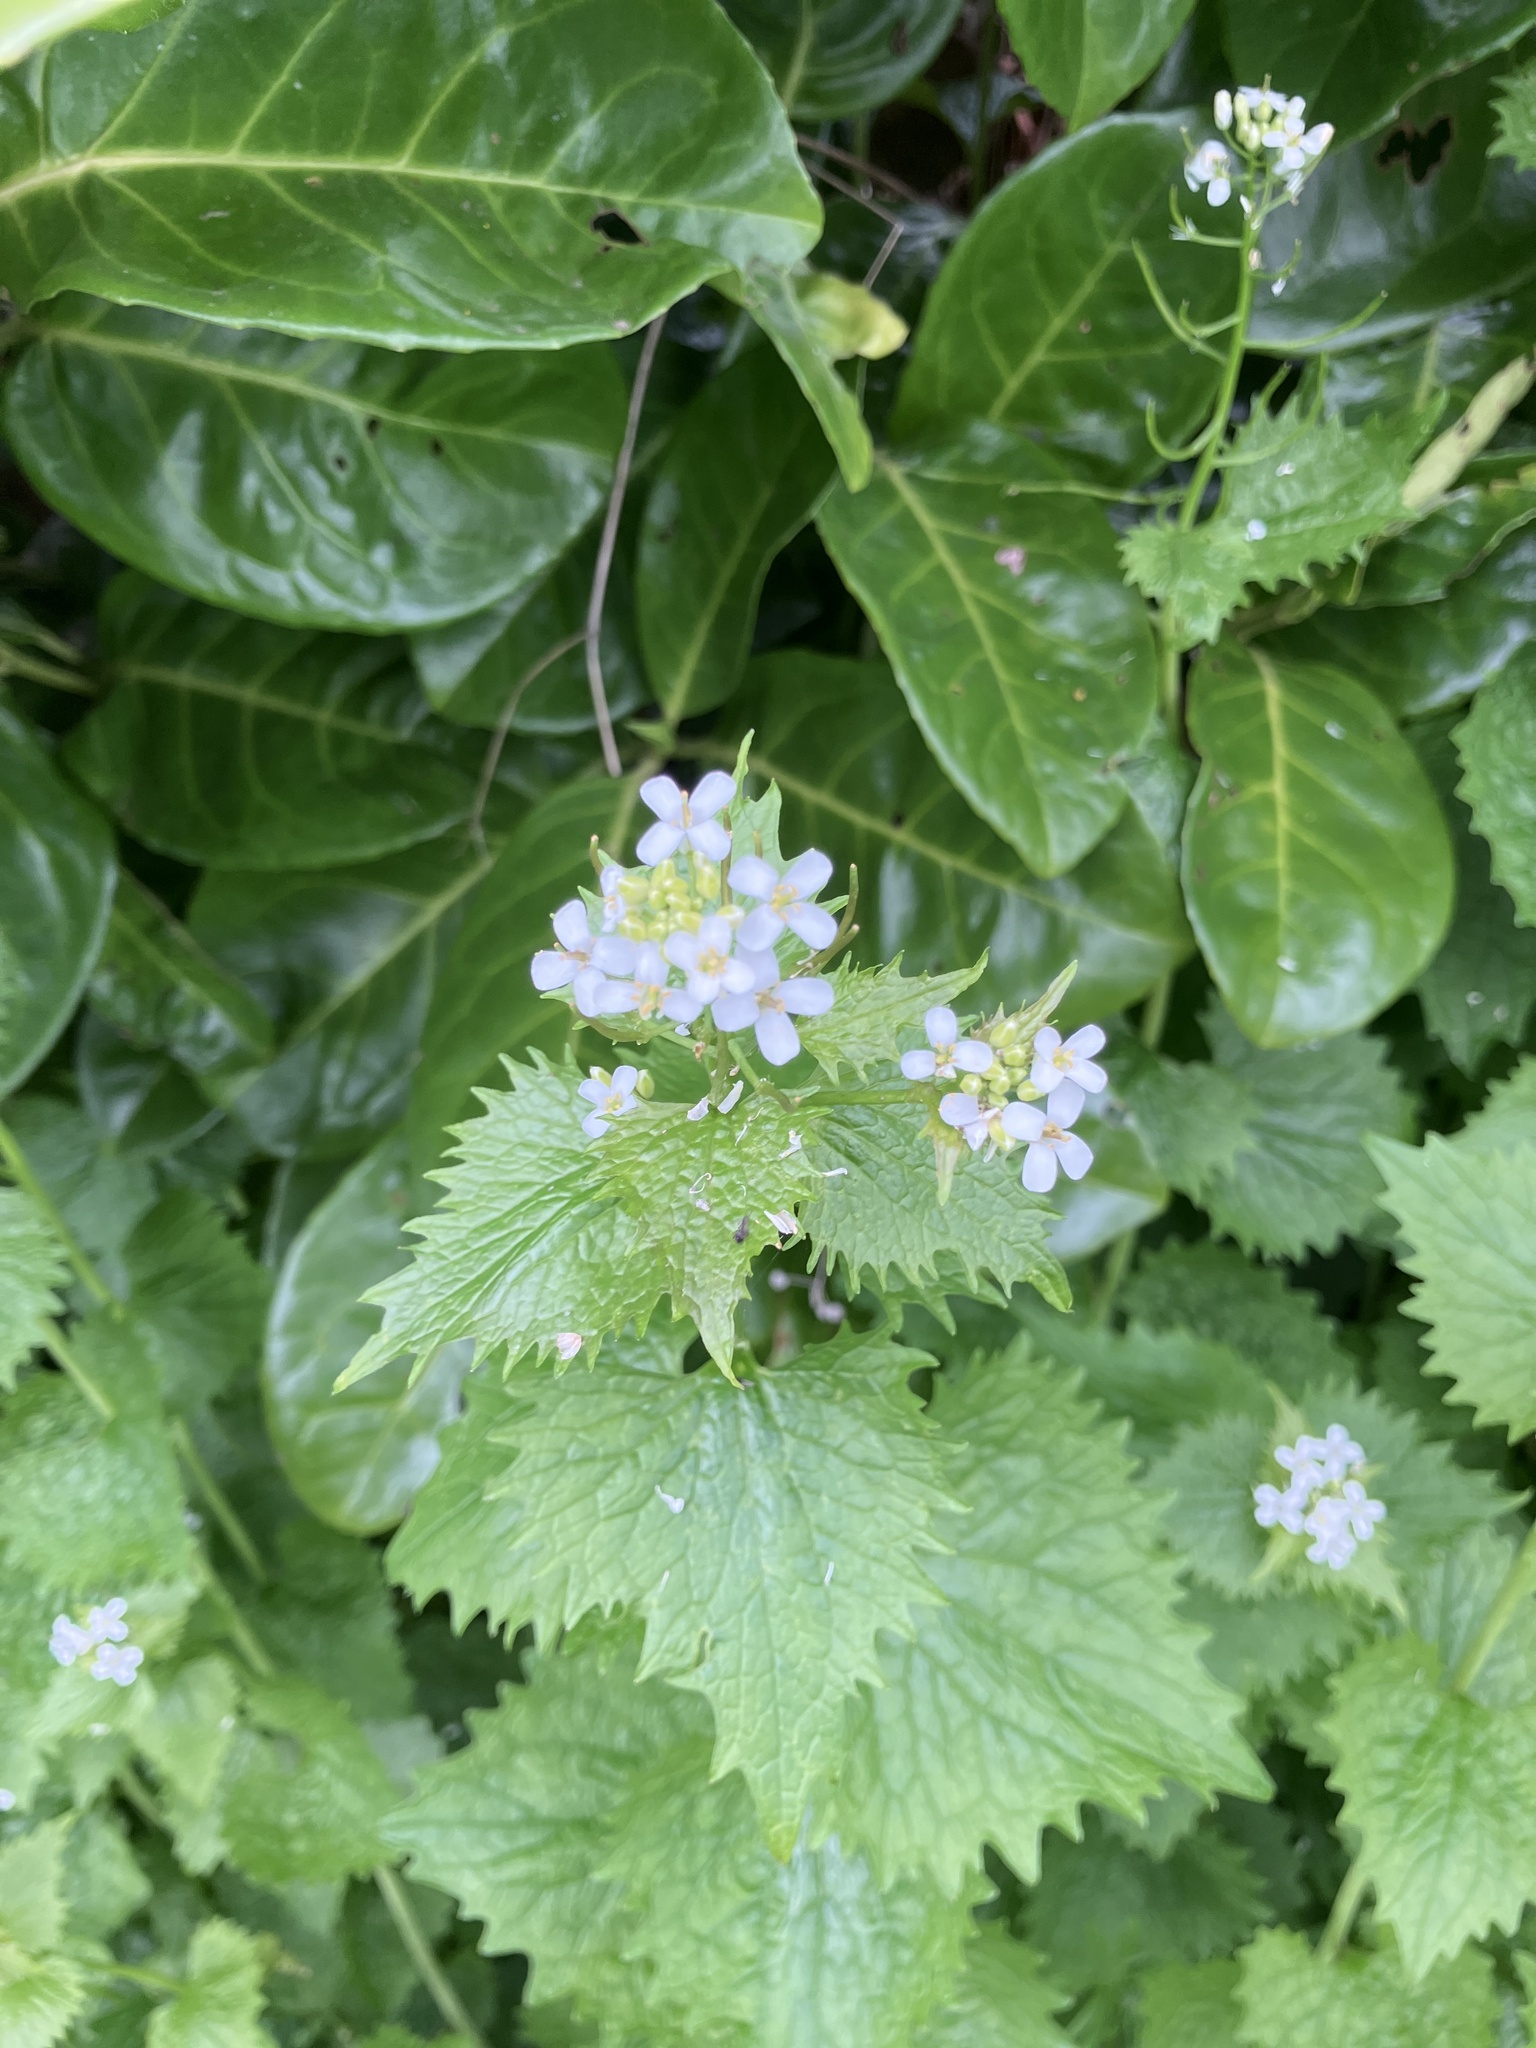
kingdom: Plantae
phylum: Tracheophyta
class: Magnoliopsida
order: Brassicales
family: Brassicaceae
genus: Alliaria
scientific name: Alliaria petiolata
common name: Garlic mustard
